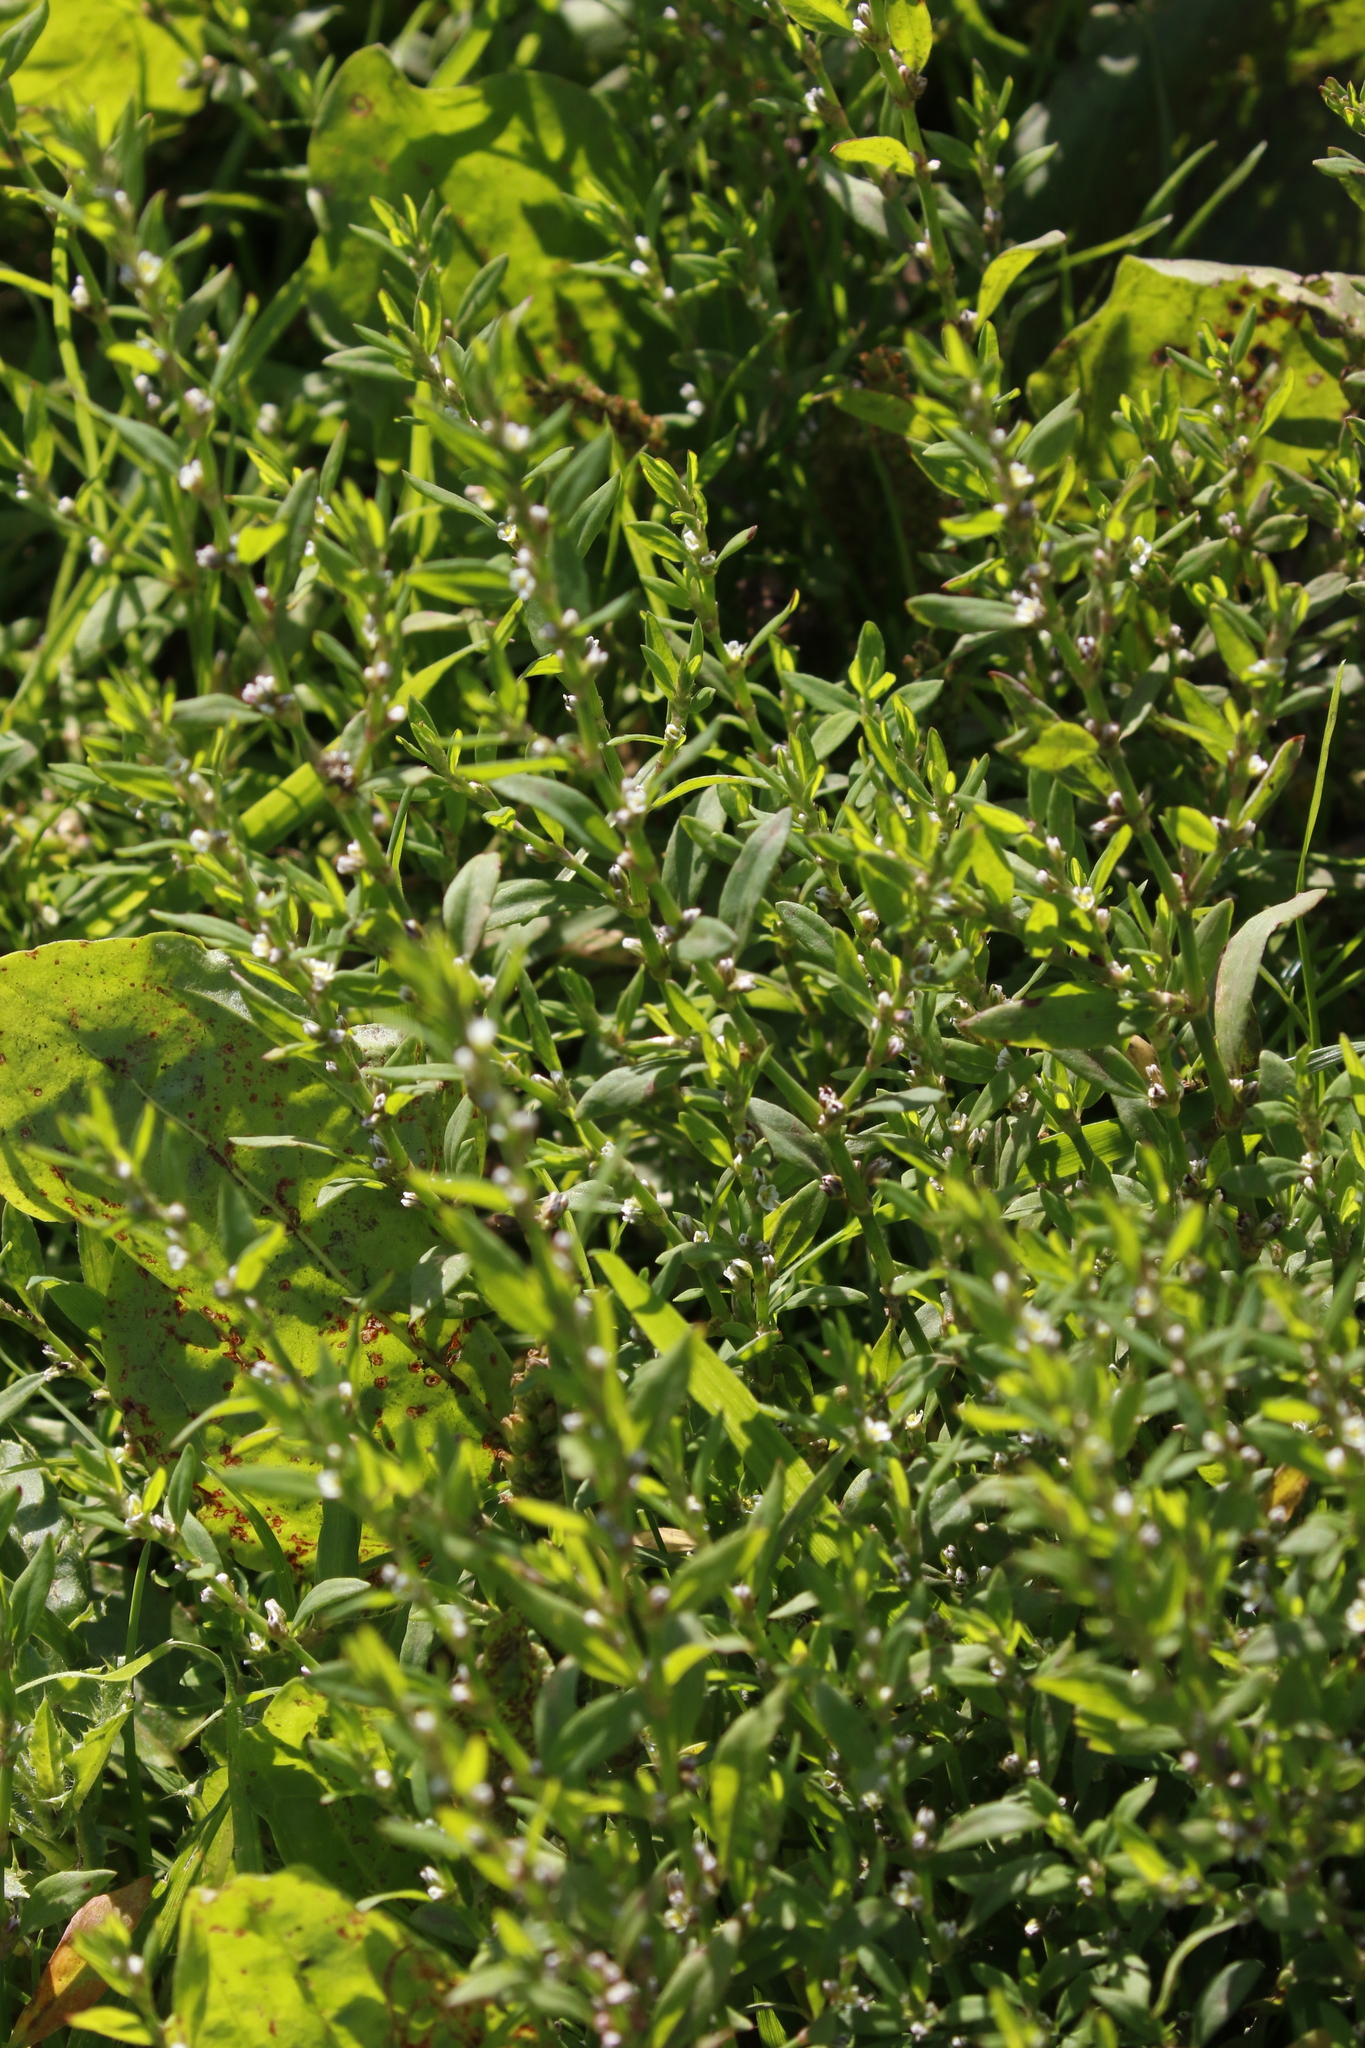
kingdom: Plantae
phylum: Tracheophyta
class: Magnoliopsida
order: Caryophyllales
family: Polygonaceae
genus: Polygonum
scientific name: Polygonum aviculare
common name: Prostrate knotweed
